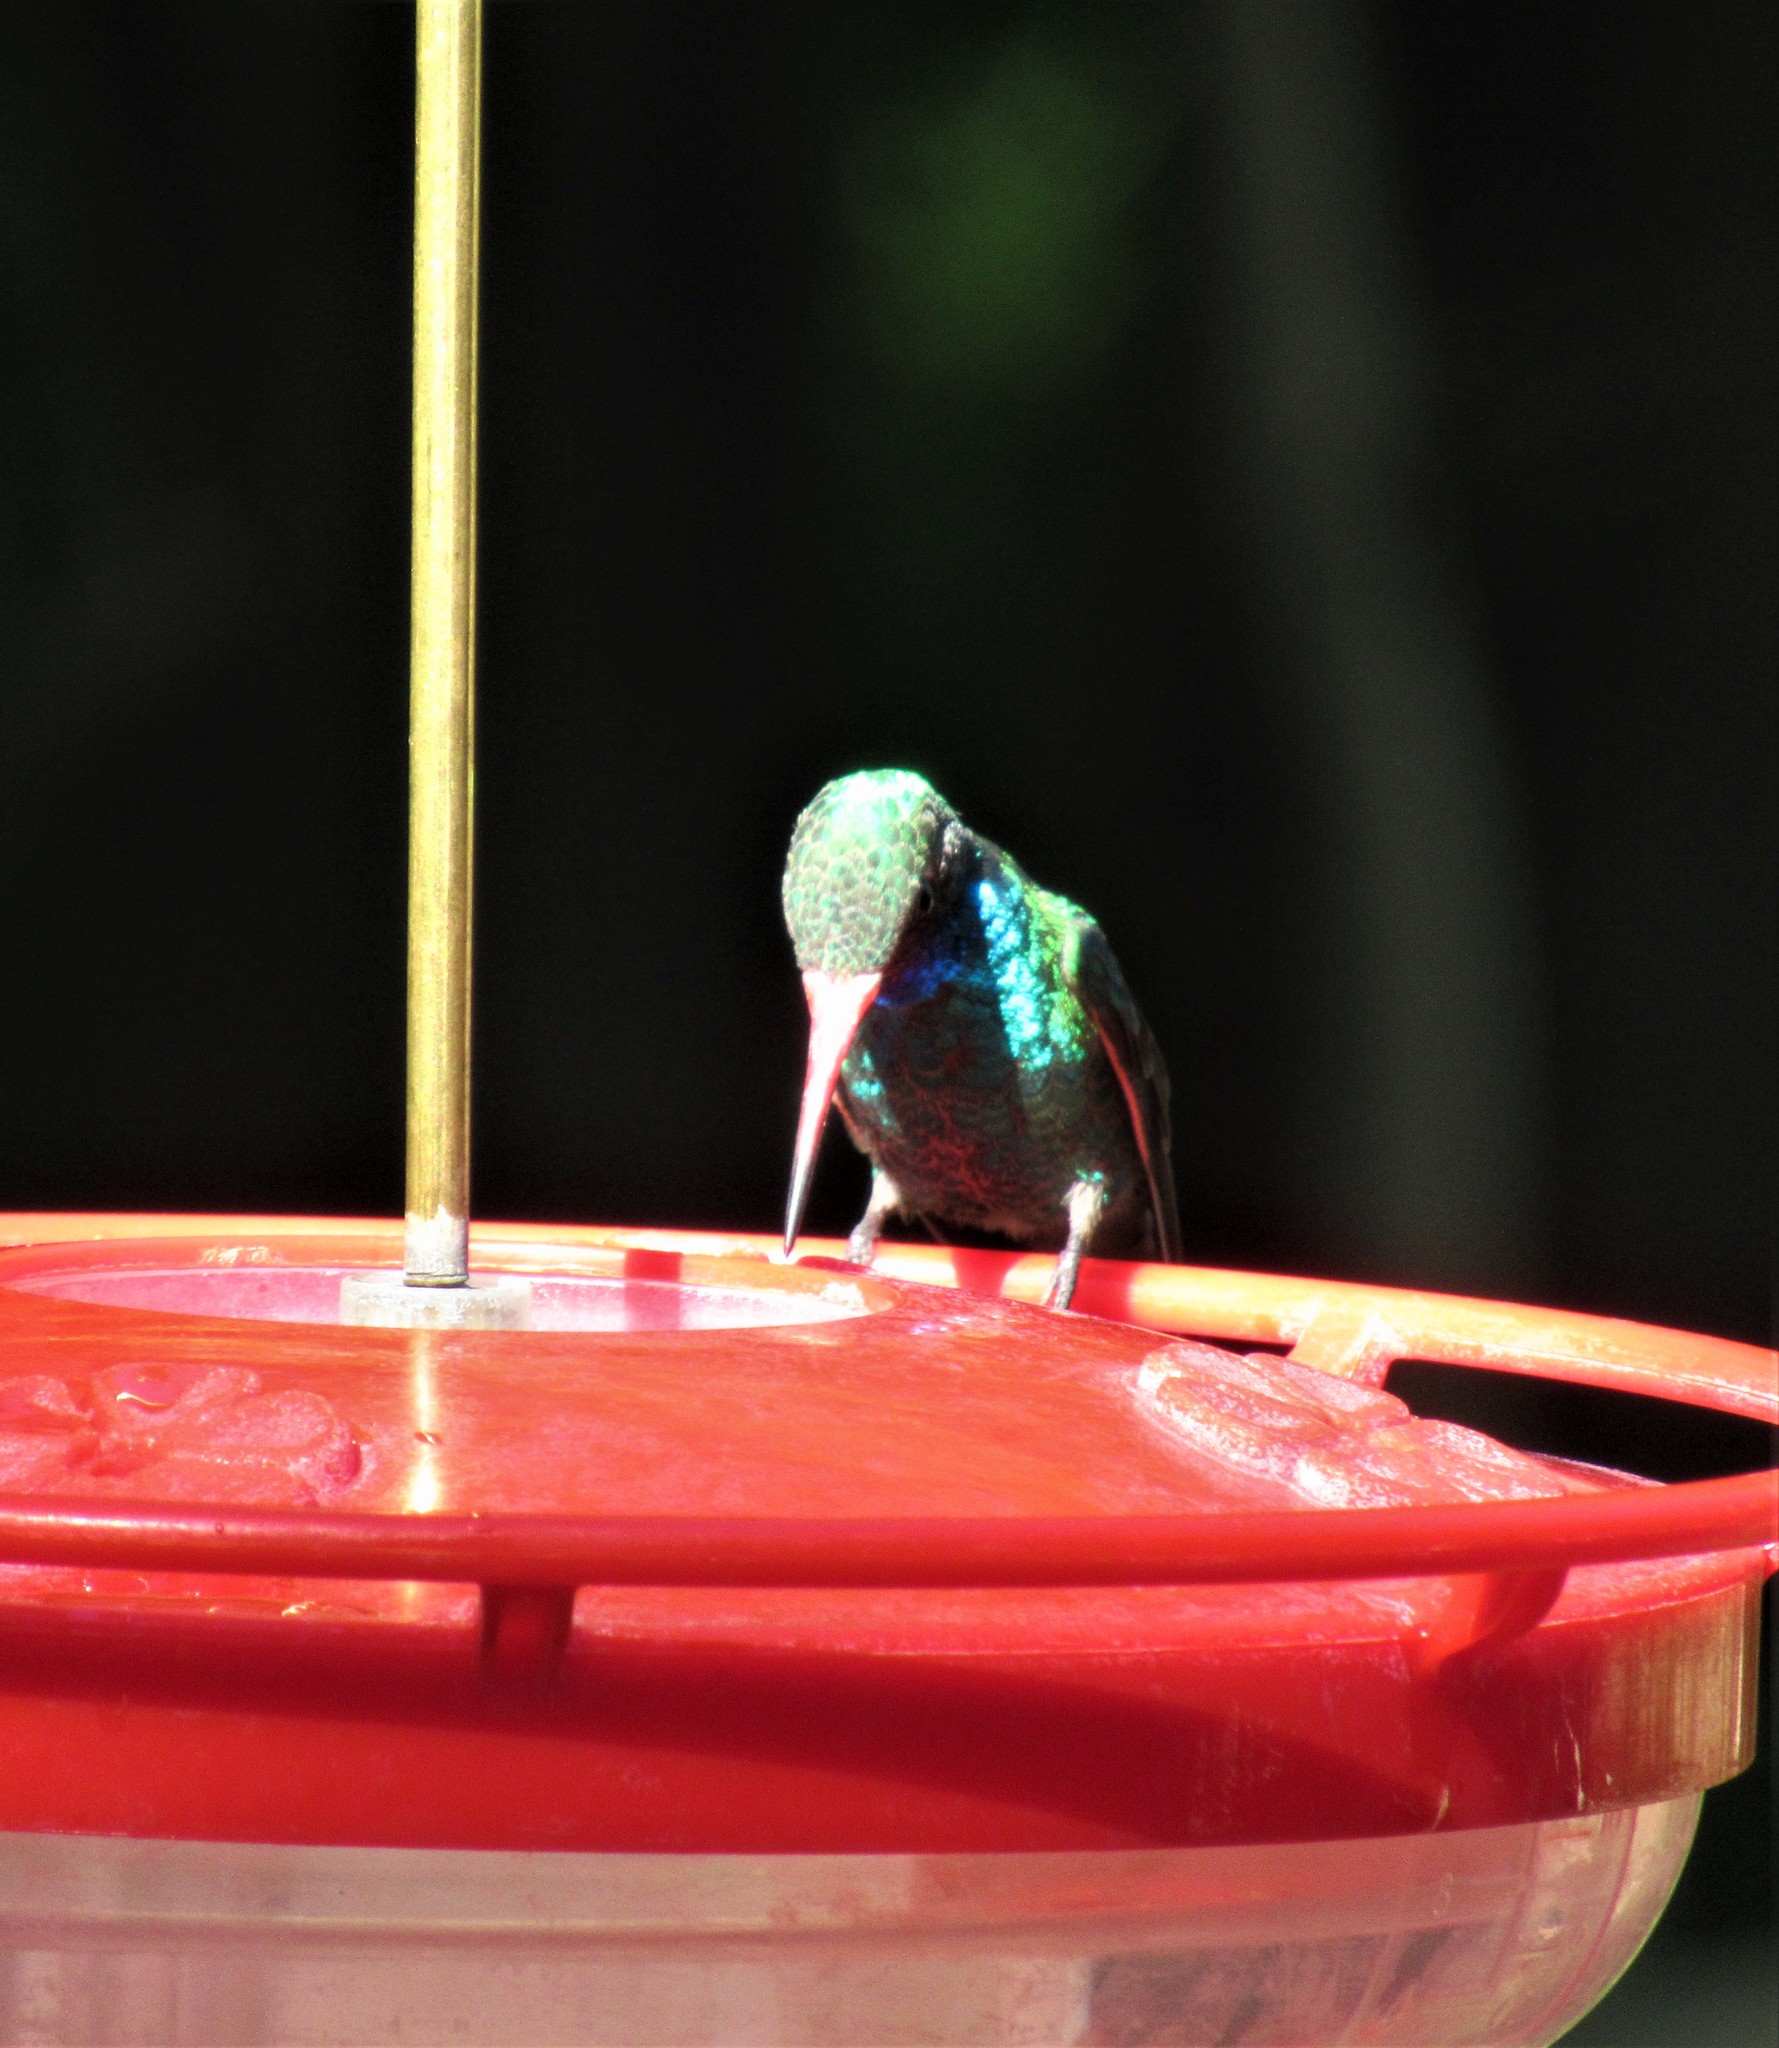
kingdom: Animalia
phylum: Chordata
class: Aves
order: Apodiformes
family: Trochilidae
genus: Cynanthus
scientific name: Cynanthus latirostris
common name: Broad-billed hummingbird
